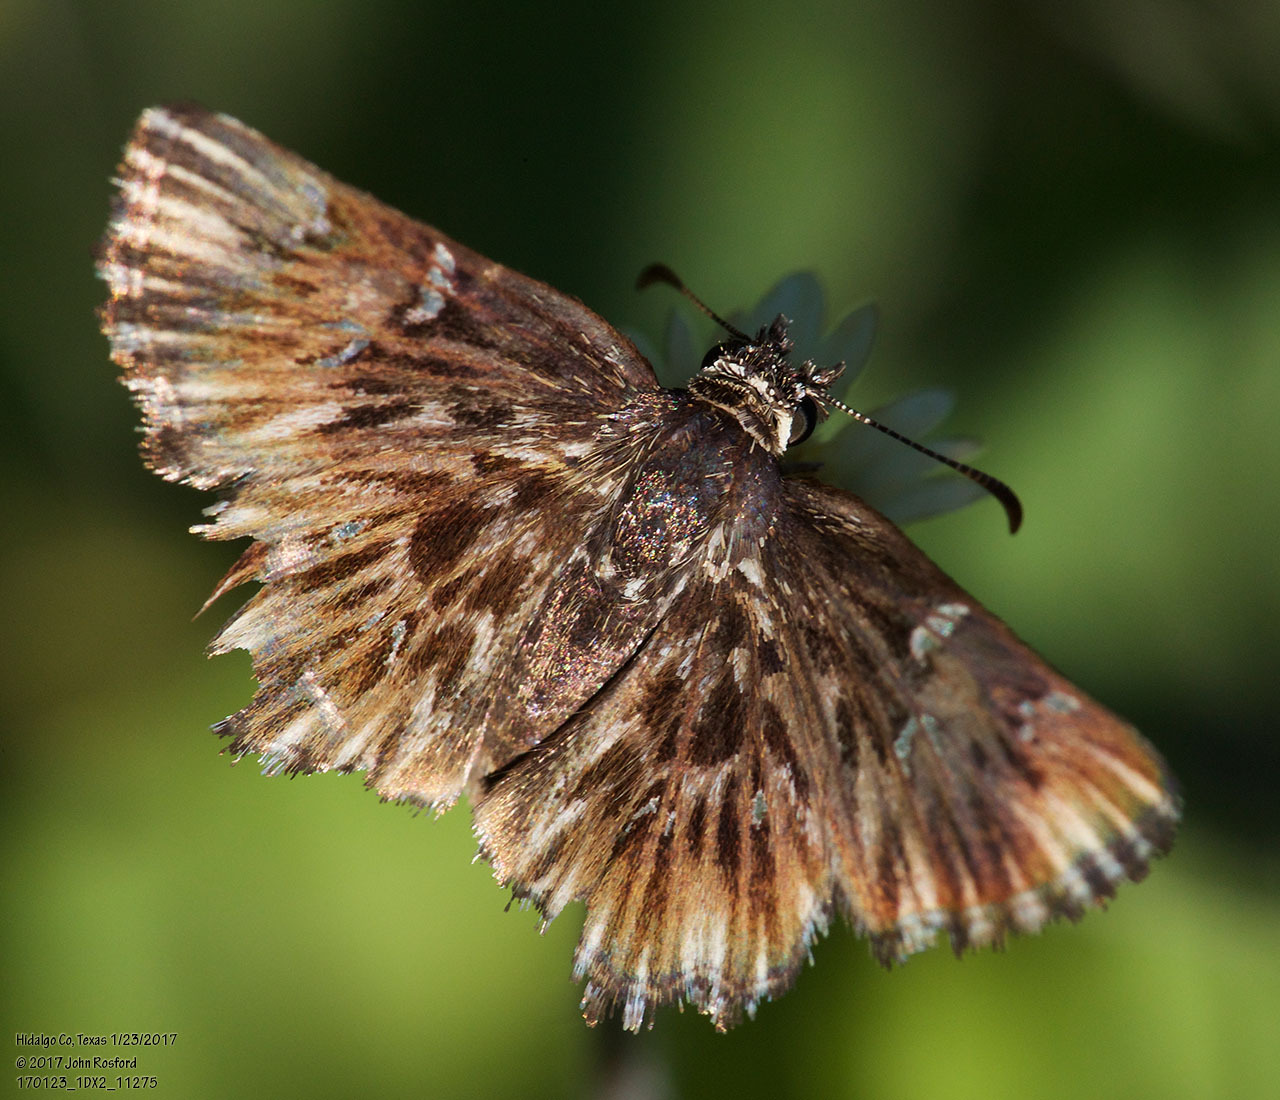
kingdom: Animalia
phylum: Arthropoda
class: Insecta
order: Lepidoptera
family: Hesperiidae
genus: Celotes
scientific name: Celotes nessus
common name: Common streaky-skipper
